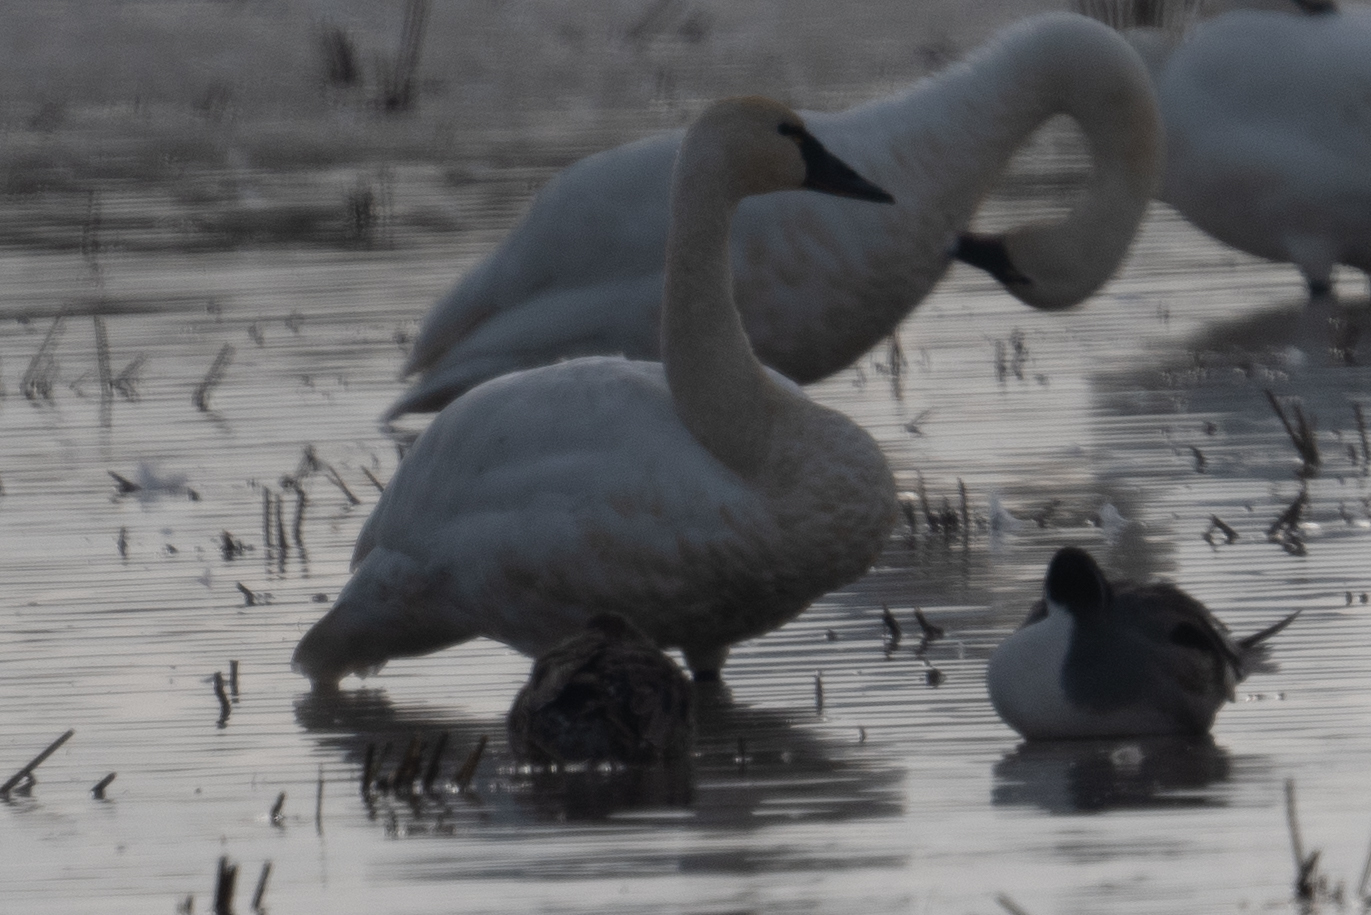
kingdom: Animalia
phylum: Chordata
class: Aves
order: Anseriformes
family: Anatidae
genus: Cygnus
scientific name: Cygnus columbianus
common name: Tundra swan
